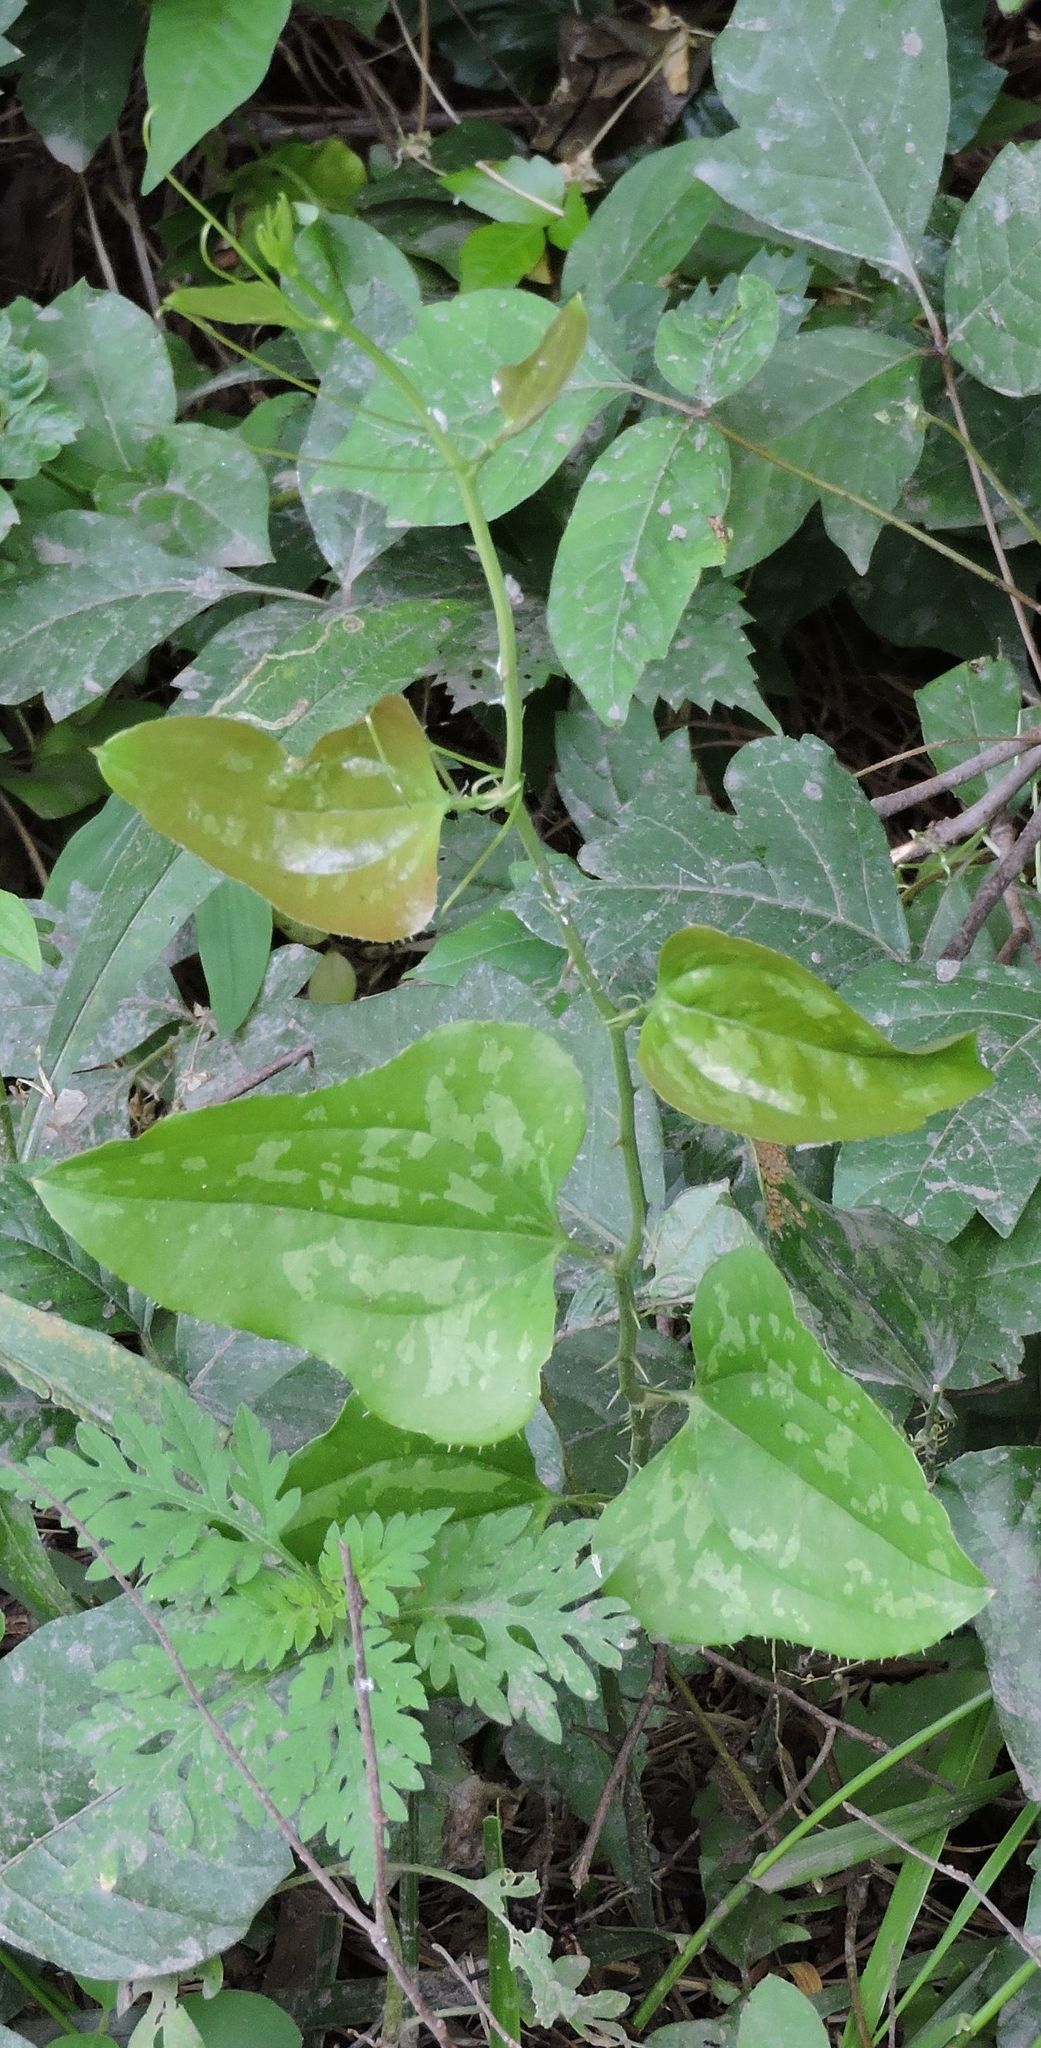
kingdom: Plantae
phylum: Tracheophyta
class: Liliopsida
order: Liliales
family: Smilacaceae
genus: Smilax
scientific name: Smilax bona-nox
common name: Catbrier
